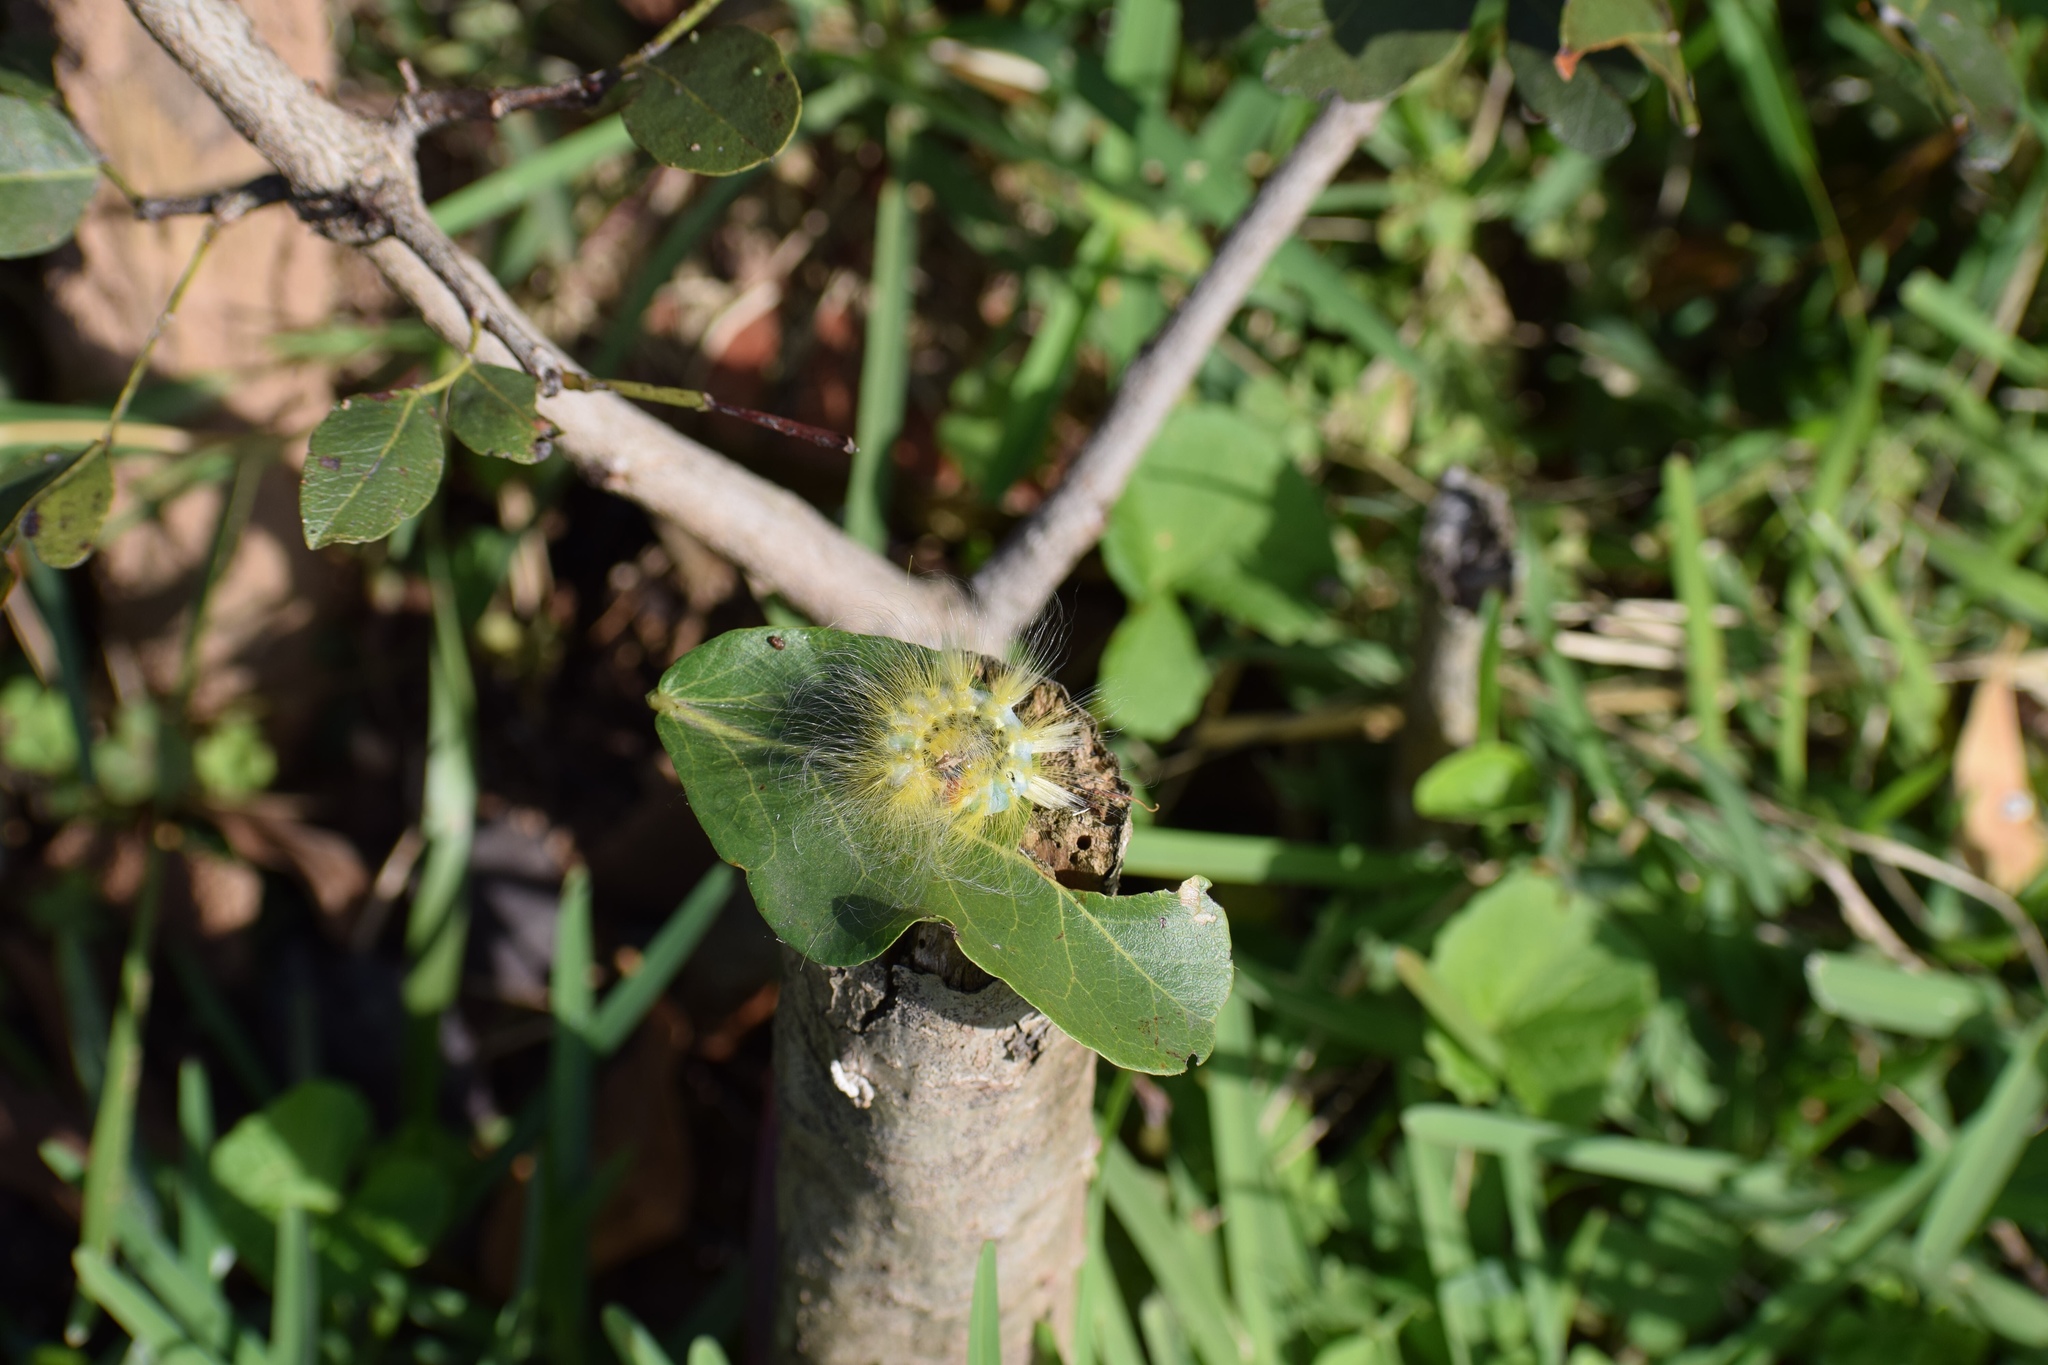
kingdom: Animalia
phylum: Arthropoda
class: Insecta
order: Lepidoptera
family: Erebidae
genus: Dasychira
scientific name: Dasychira georgiana
